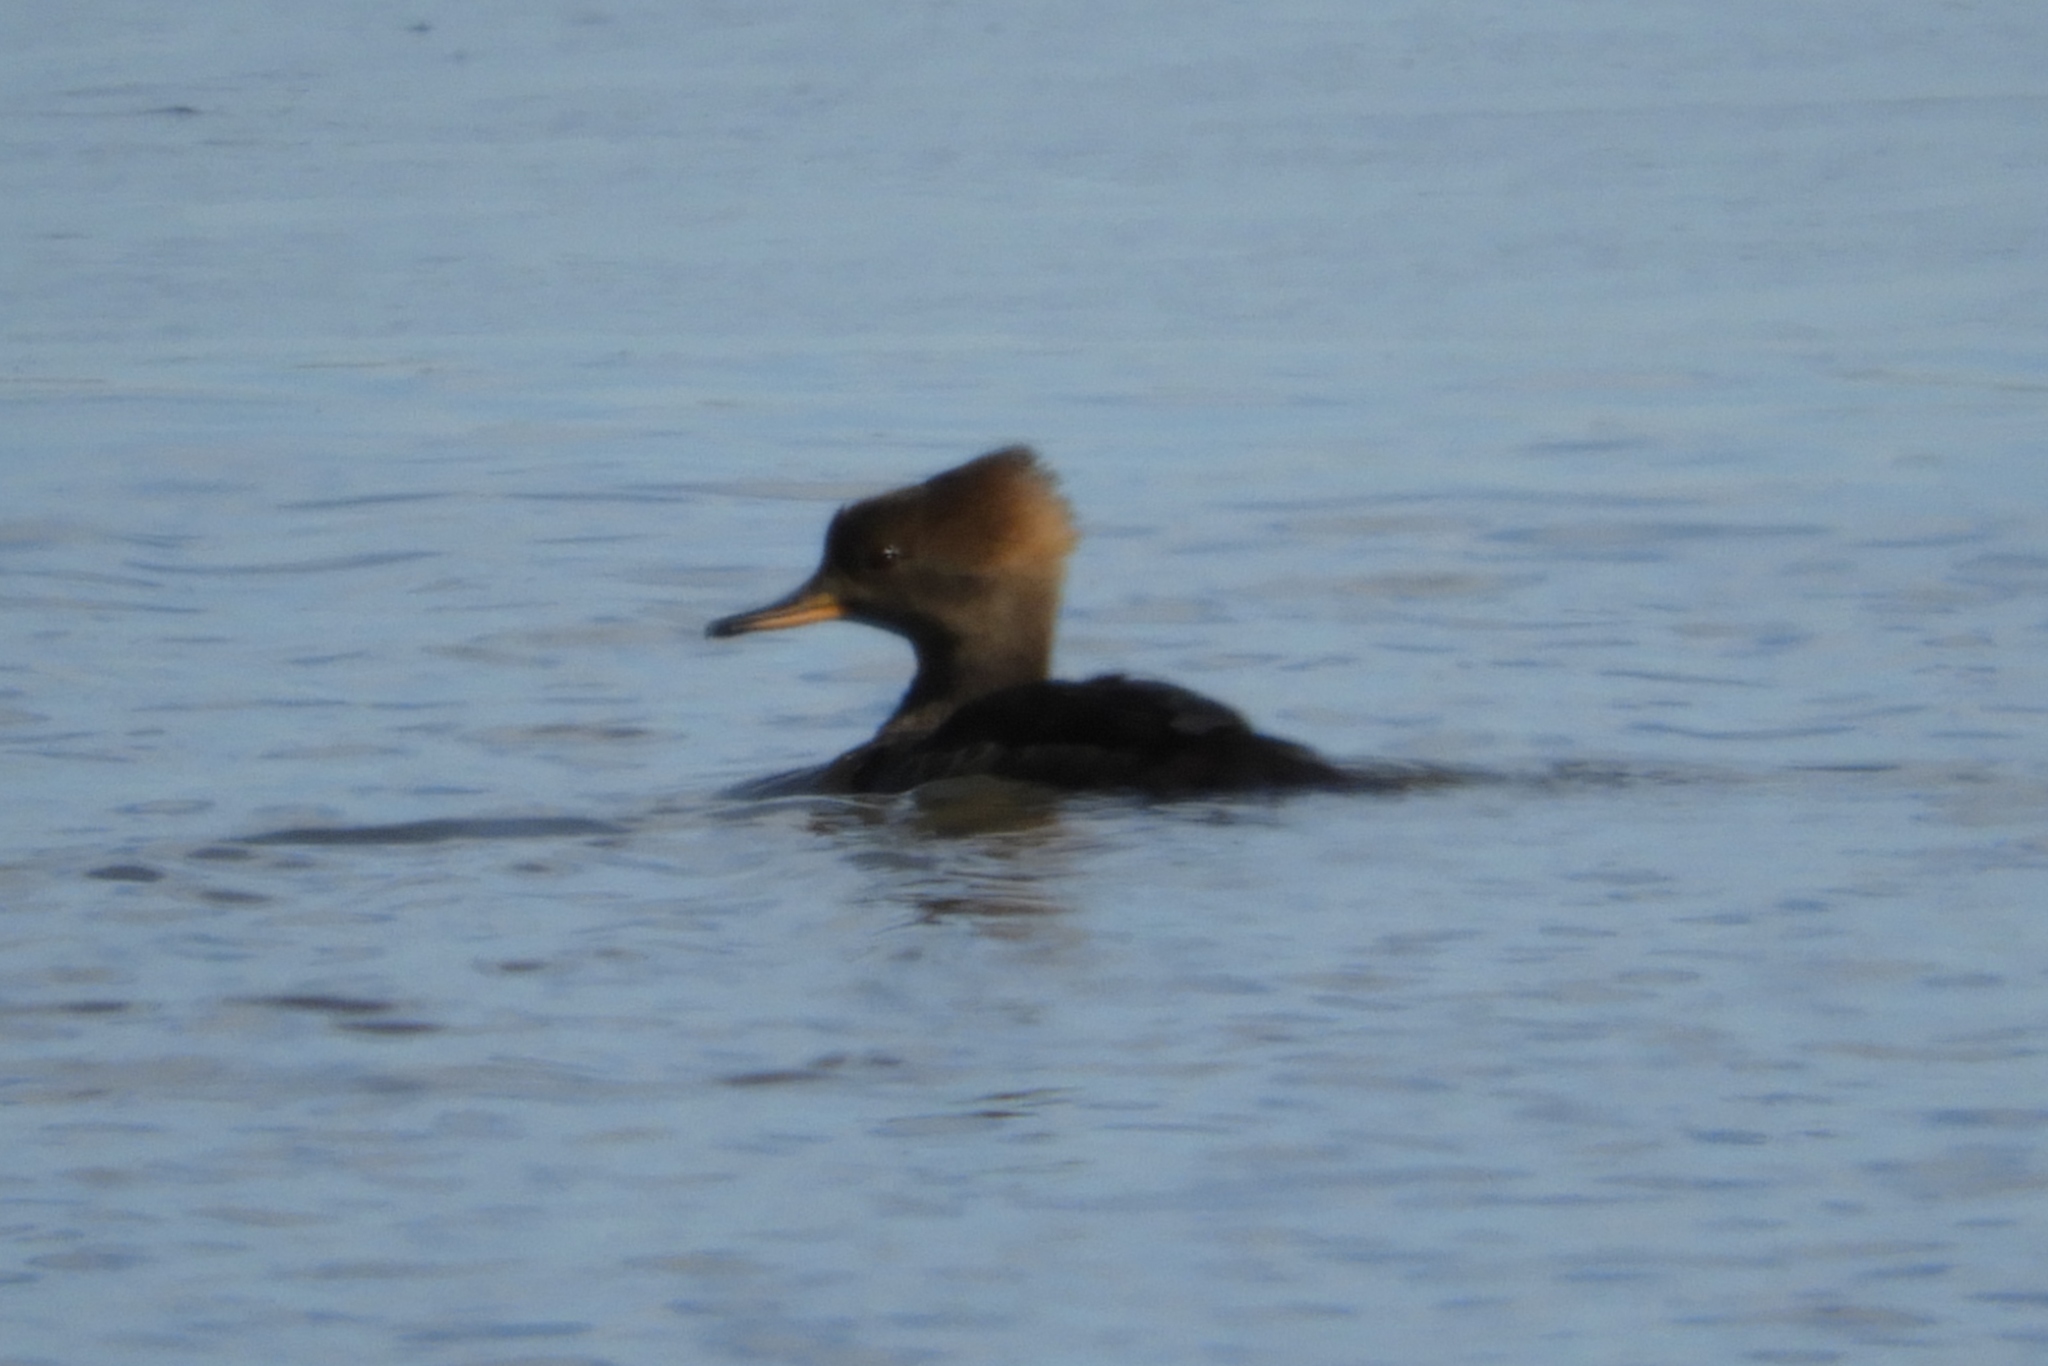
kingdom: Animalia
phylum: Chordata
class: Aves
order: Anseriformes
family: Anatidae
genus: Lophodytes
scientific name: Lophodytes cucullatus
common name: Hooded merganser
